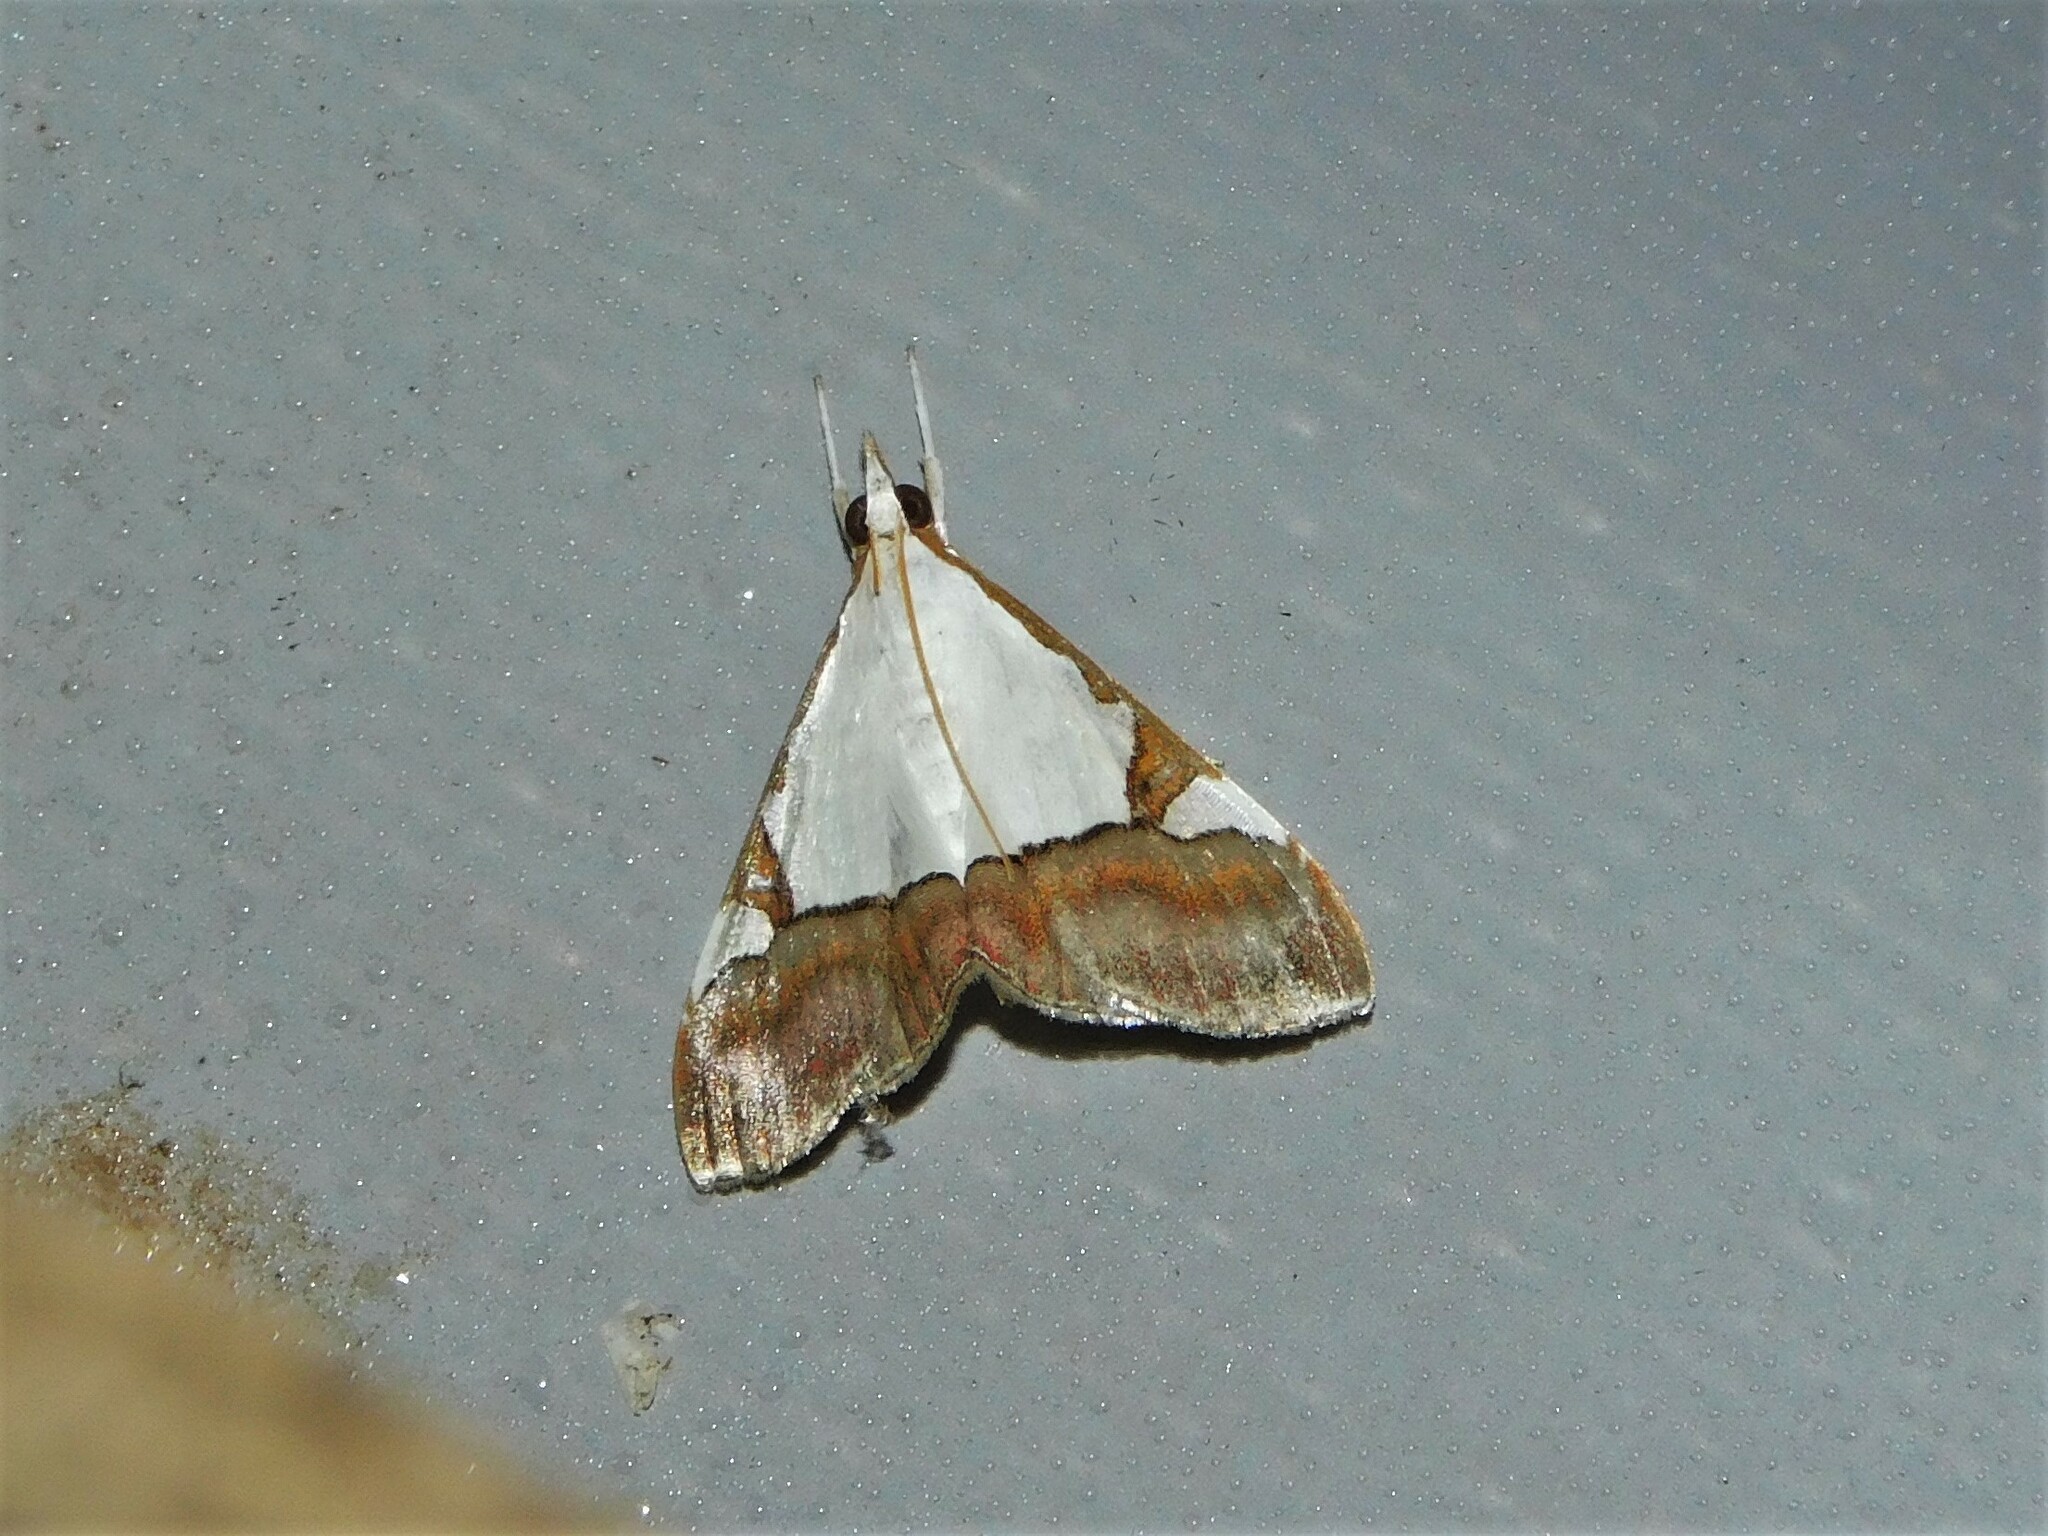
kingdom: Animalia
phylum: Arthropoda
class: Insecta
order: Lepidoptera
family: Crambidae
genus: Autocharis
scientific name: Autocharis margaritalis
